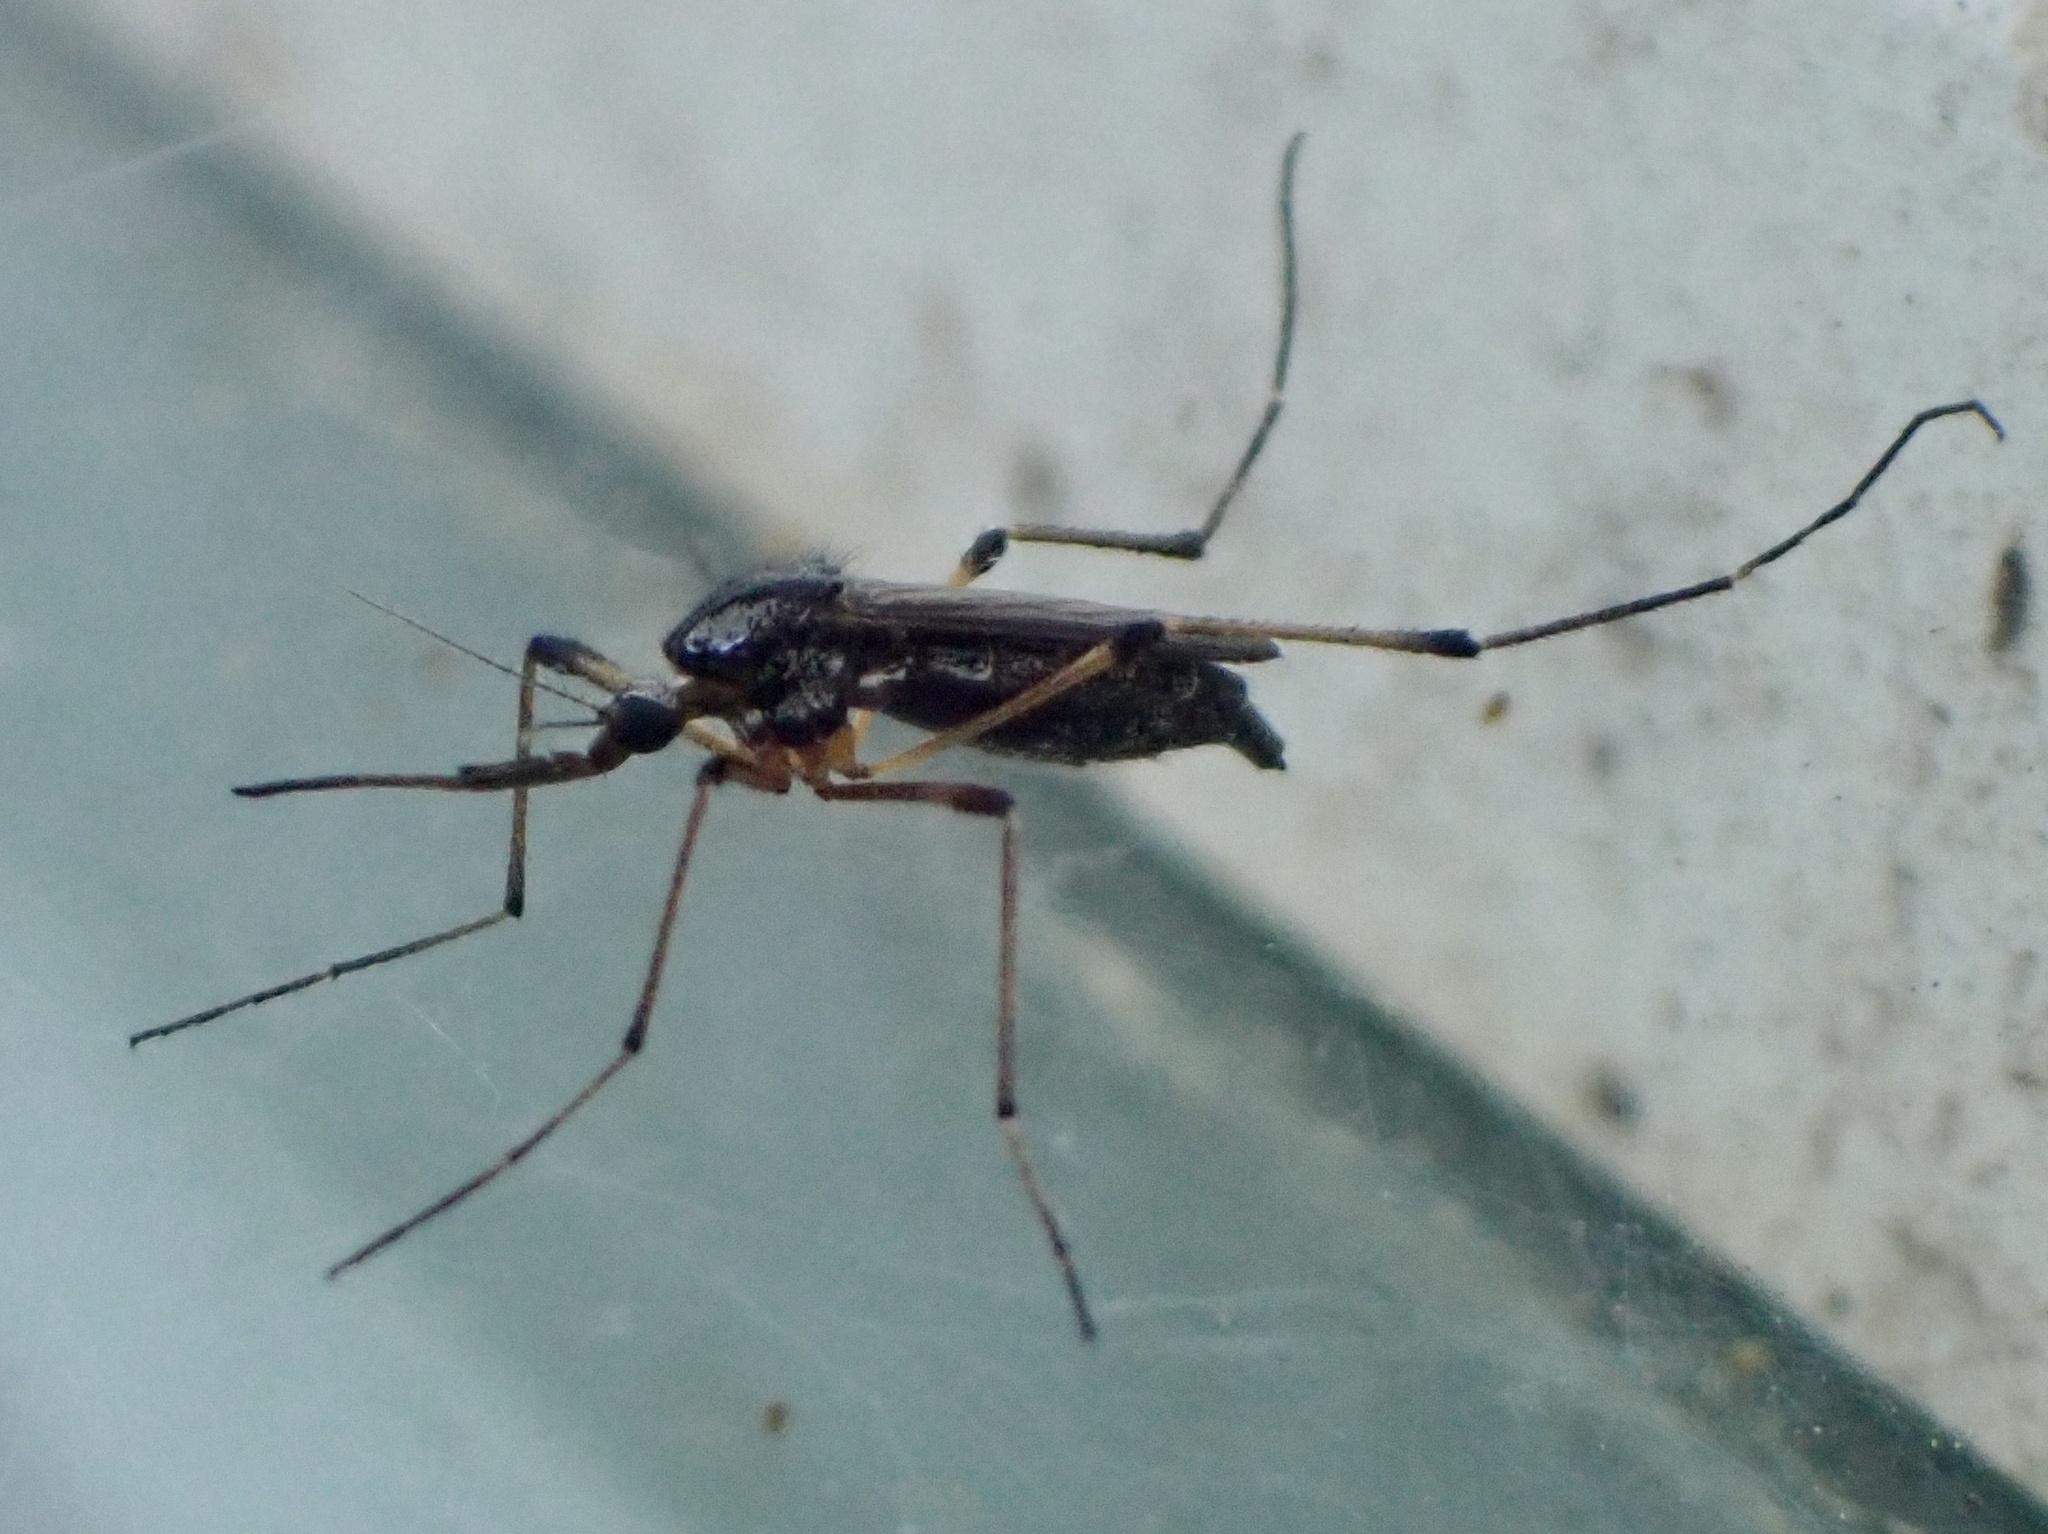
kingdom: Animalia
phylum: Arthropoda
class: Insecta
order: Diptera
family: Culicidae
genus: Psorophora
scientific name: Psorophora howardii
